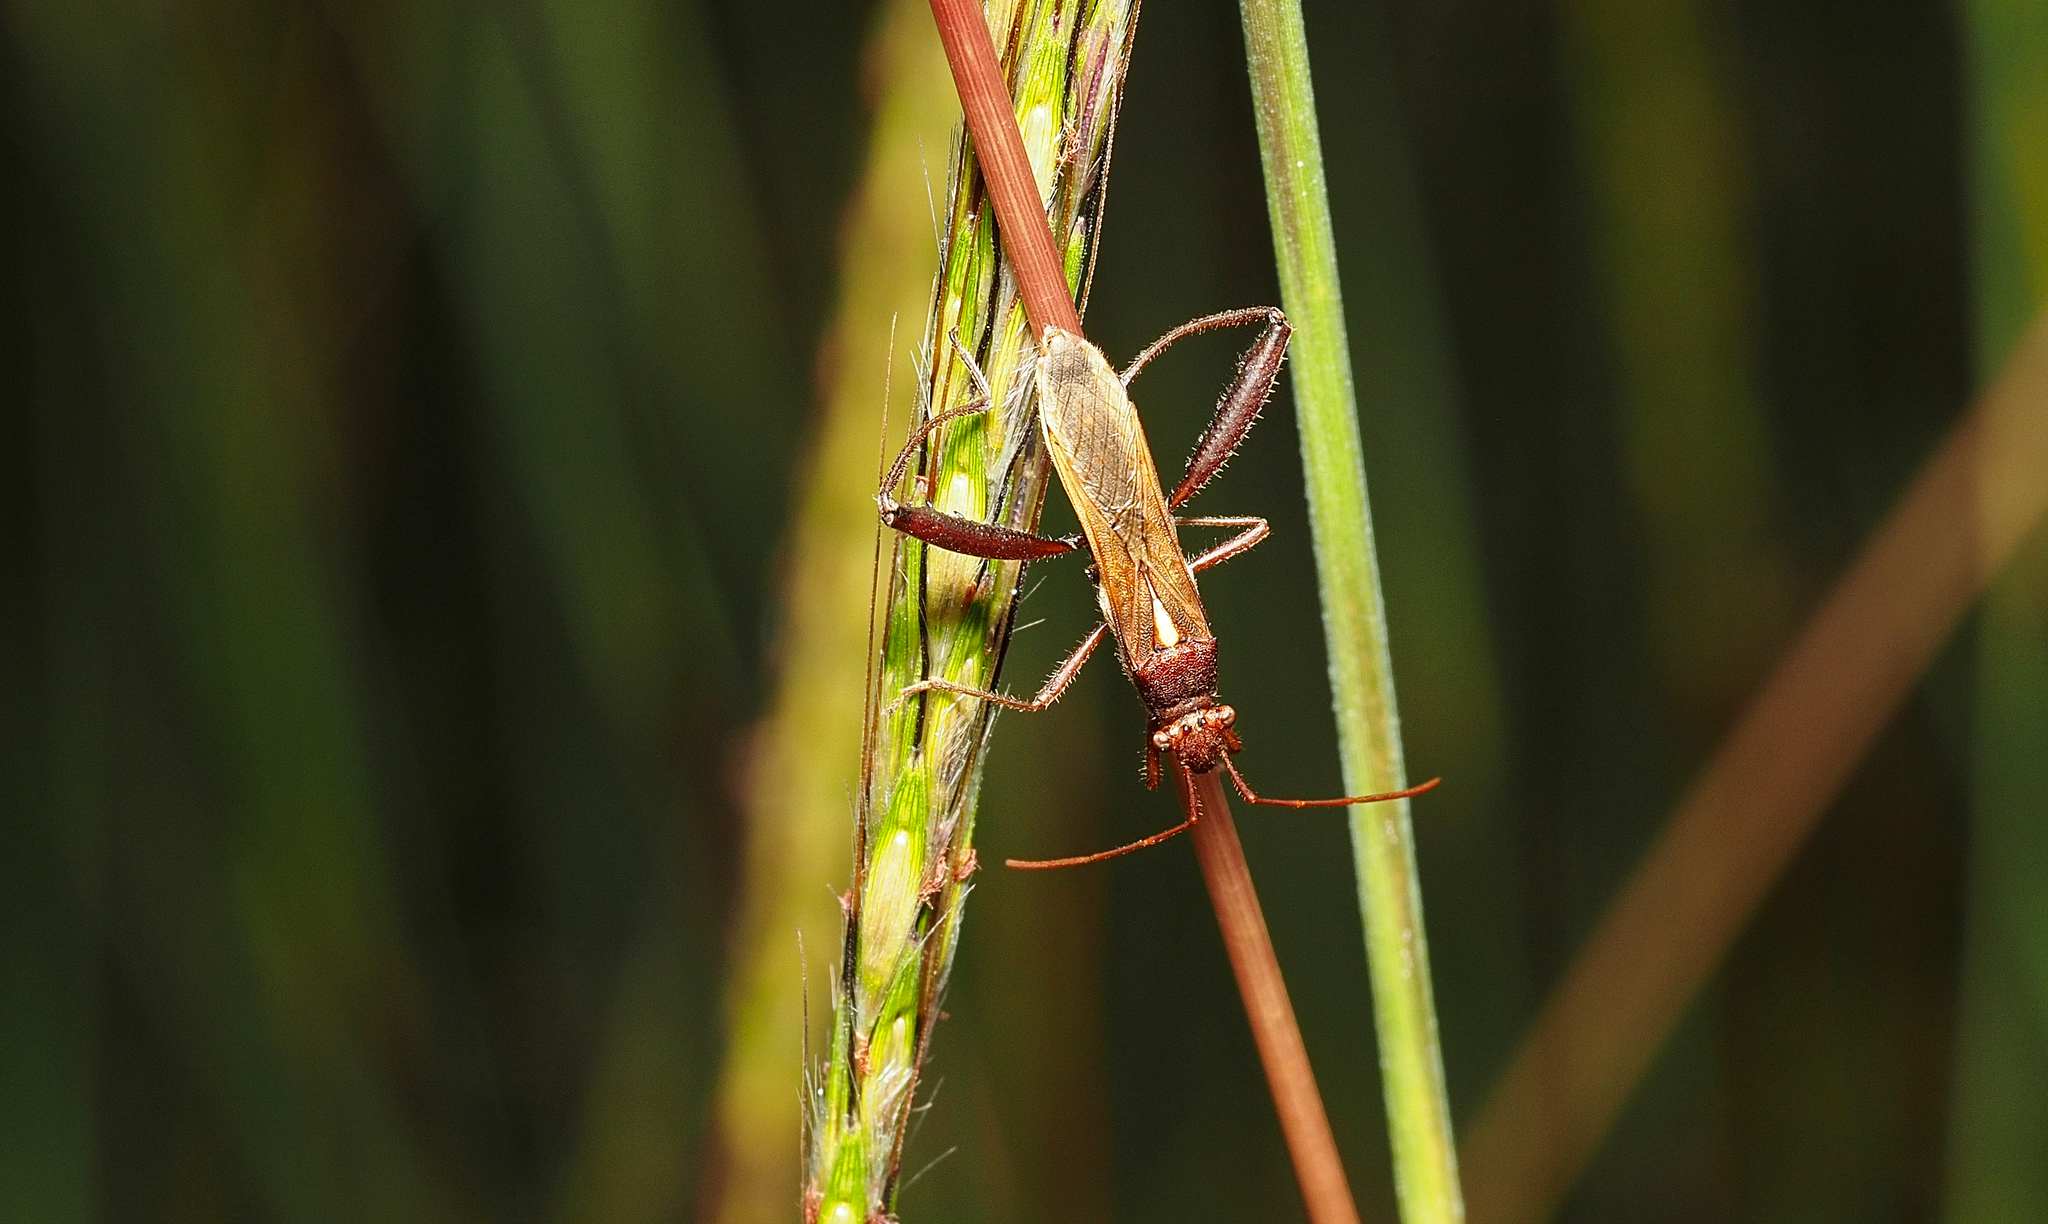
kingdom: Animalia
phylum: Arthropoda
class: Insecta
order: Hemiptera
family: Alydidae
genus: Melanacanthus
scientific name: Melanacanthus scutellaris
